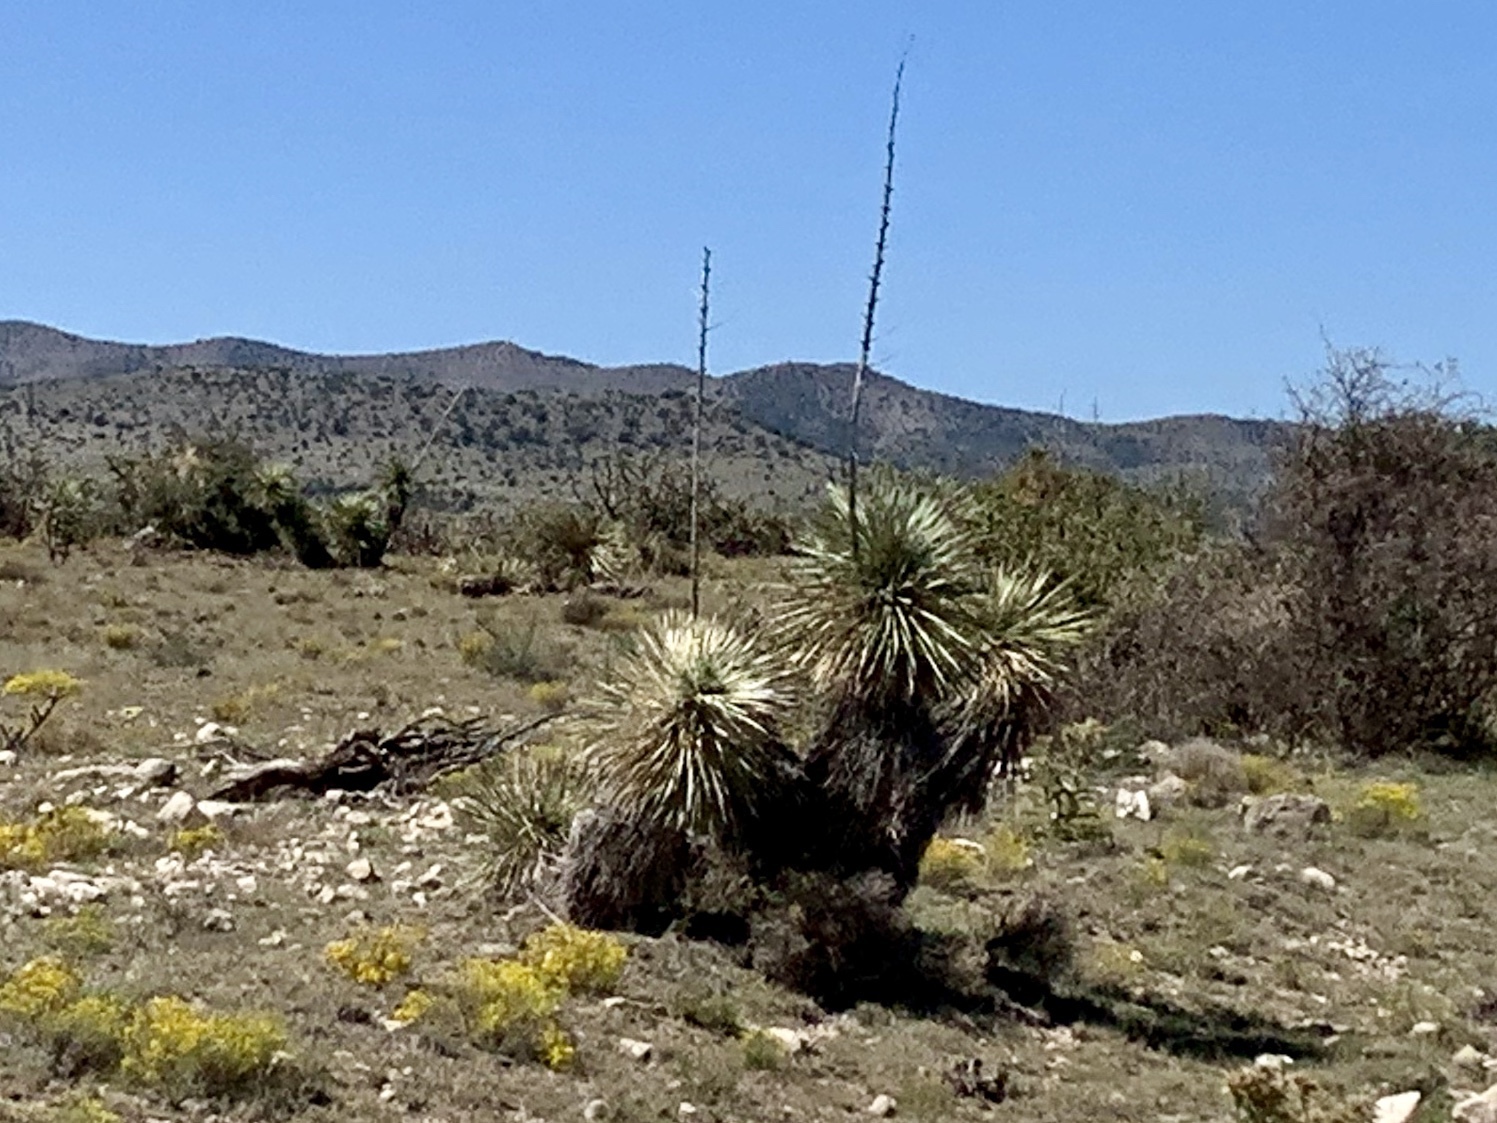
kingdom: Plantae
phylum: Tracheophyta
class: Liliopsida
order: Asparagales
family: Asparagaceae
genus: Yucca
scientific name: Yucca elata
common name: Palmella
